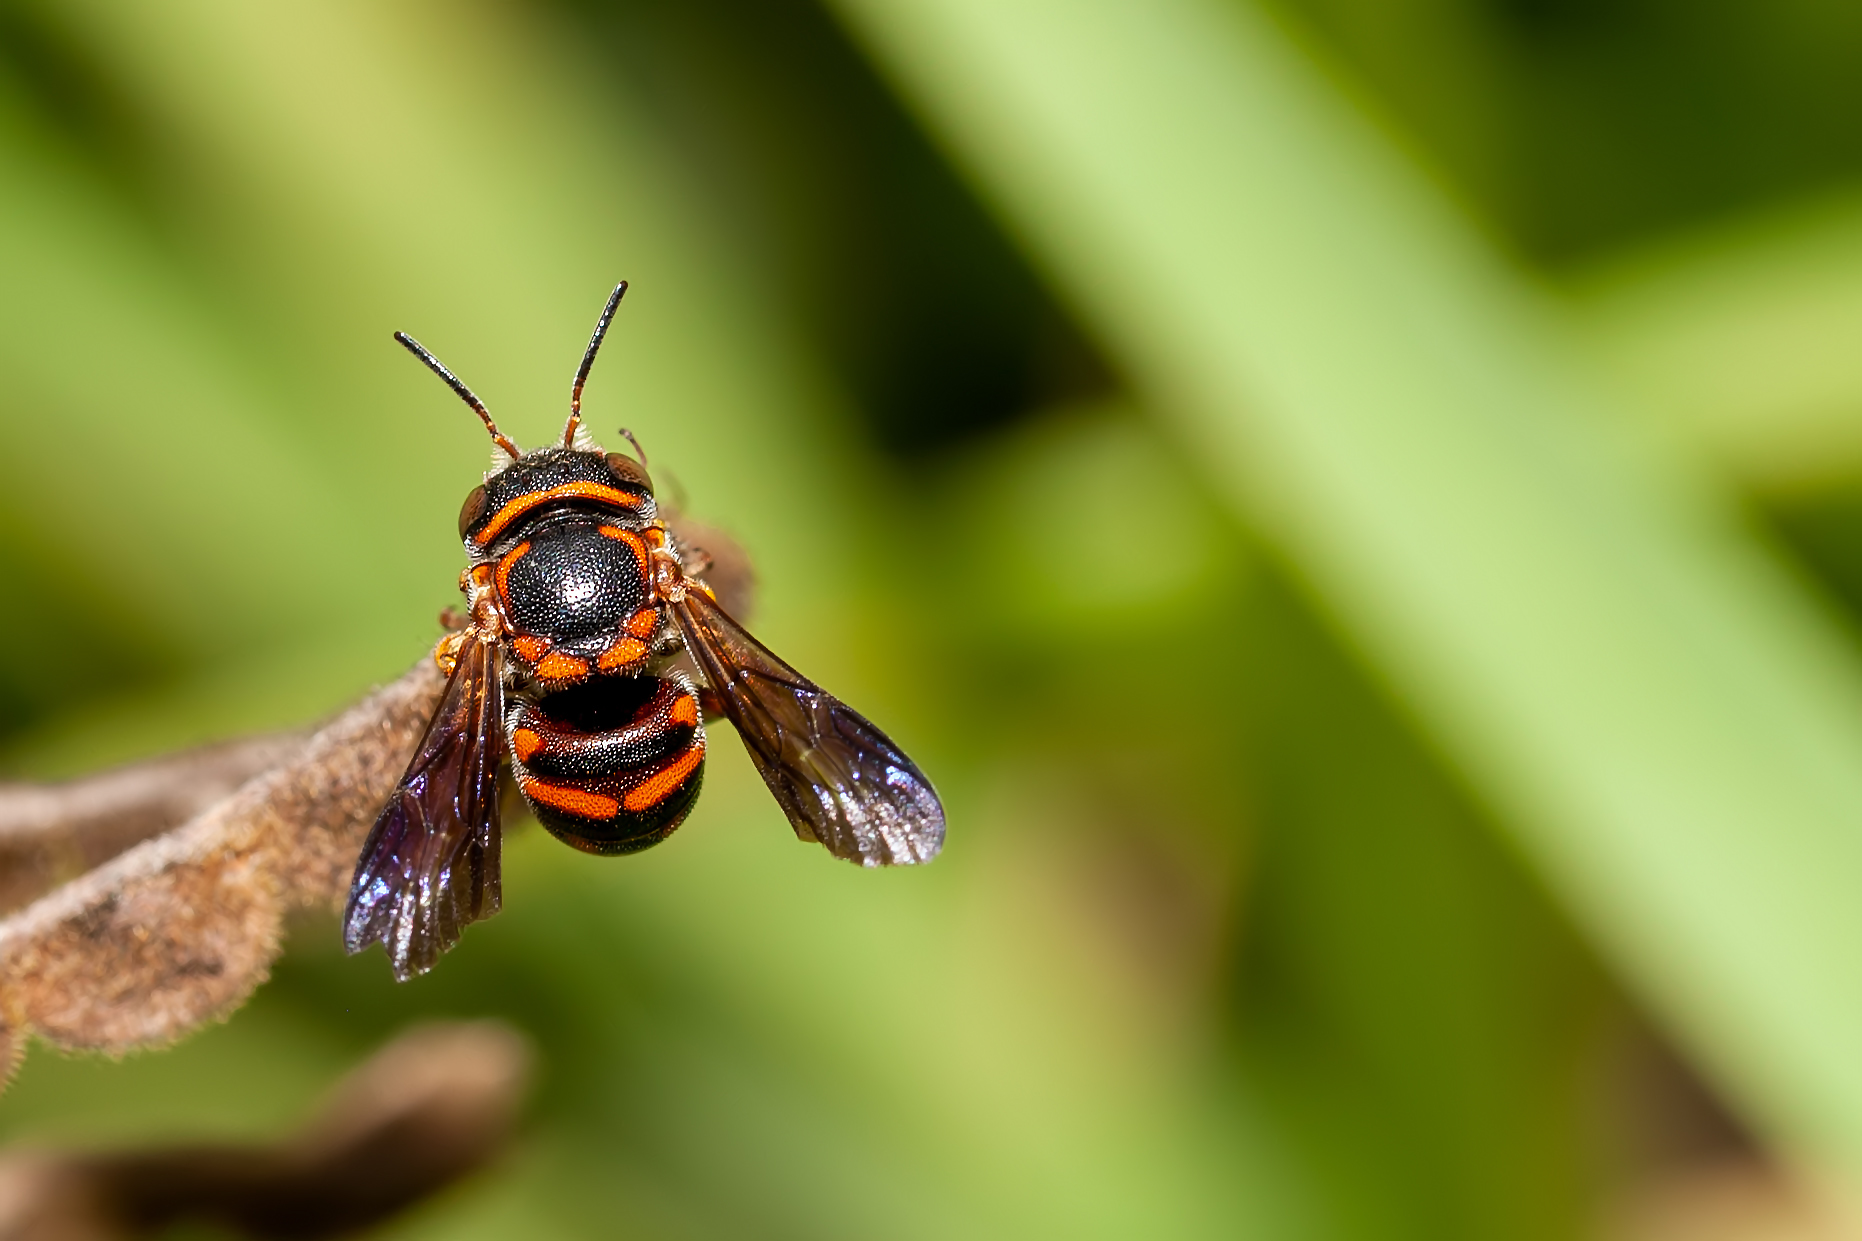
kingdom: Animalia
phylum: Arthropoda
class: Insecta
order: Hymenoptera
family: Megachilidae
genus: Anthidiellum
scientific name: Anthidiellum perplexum
